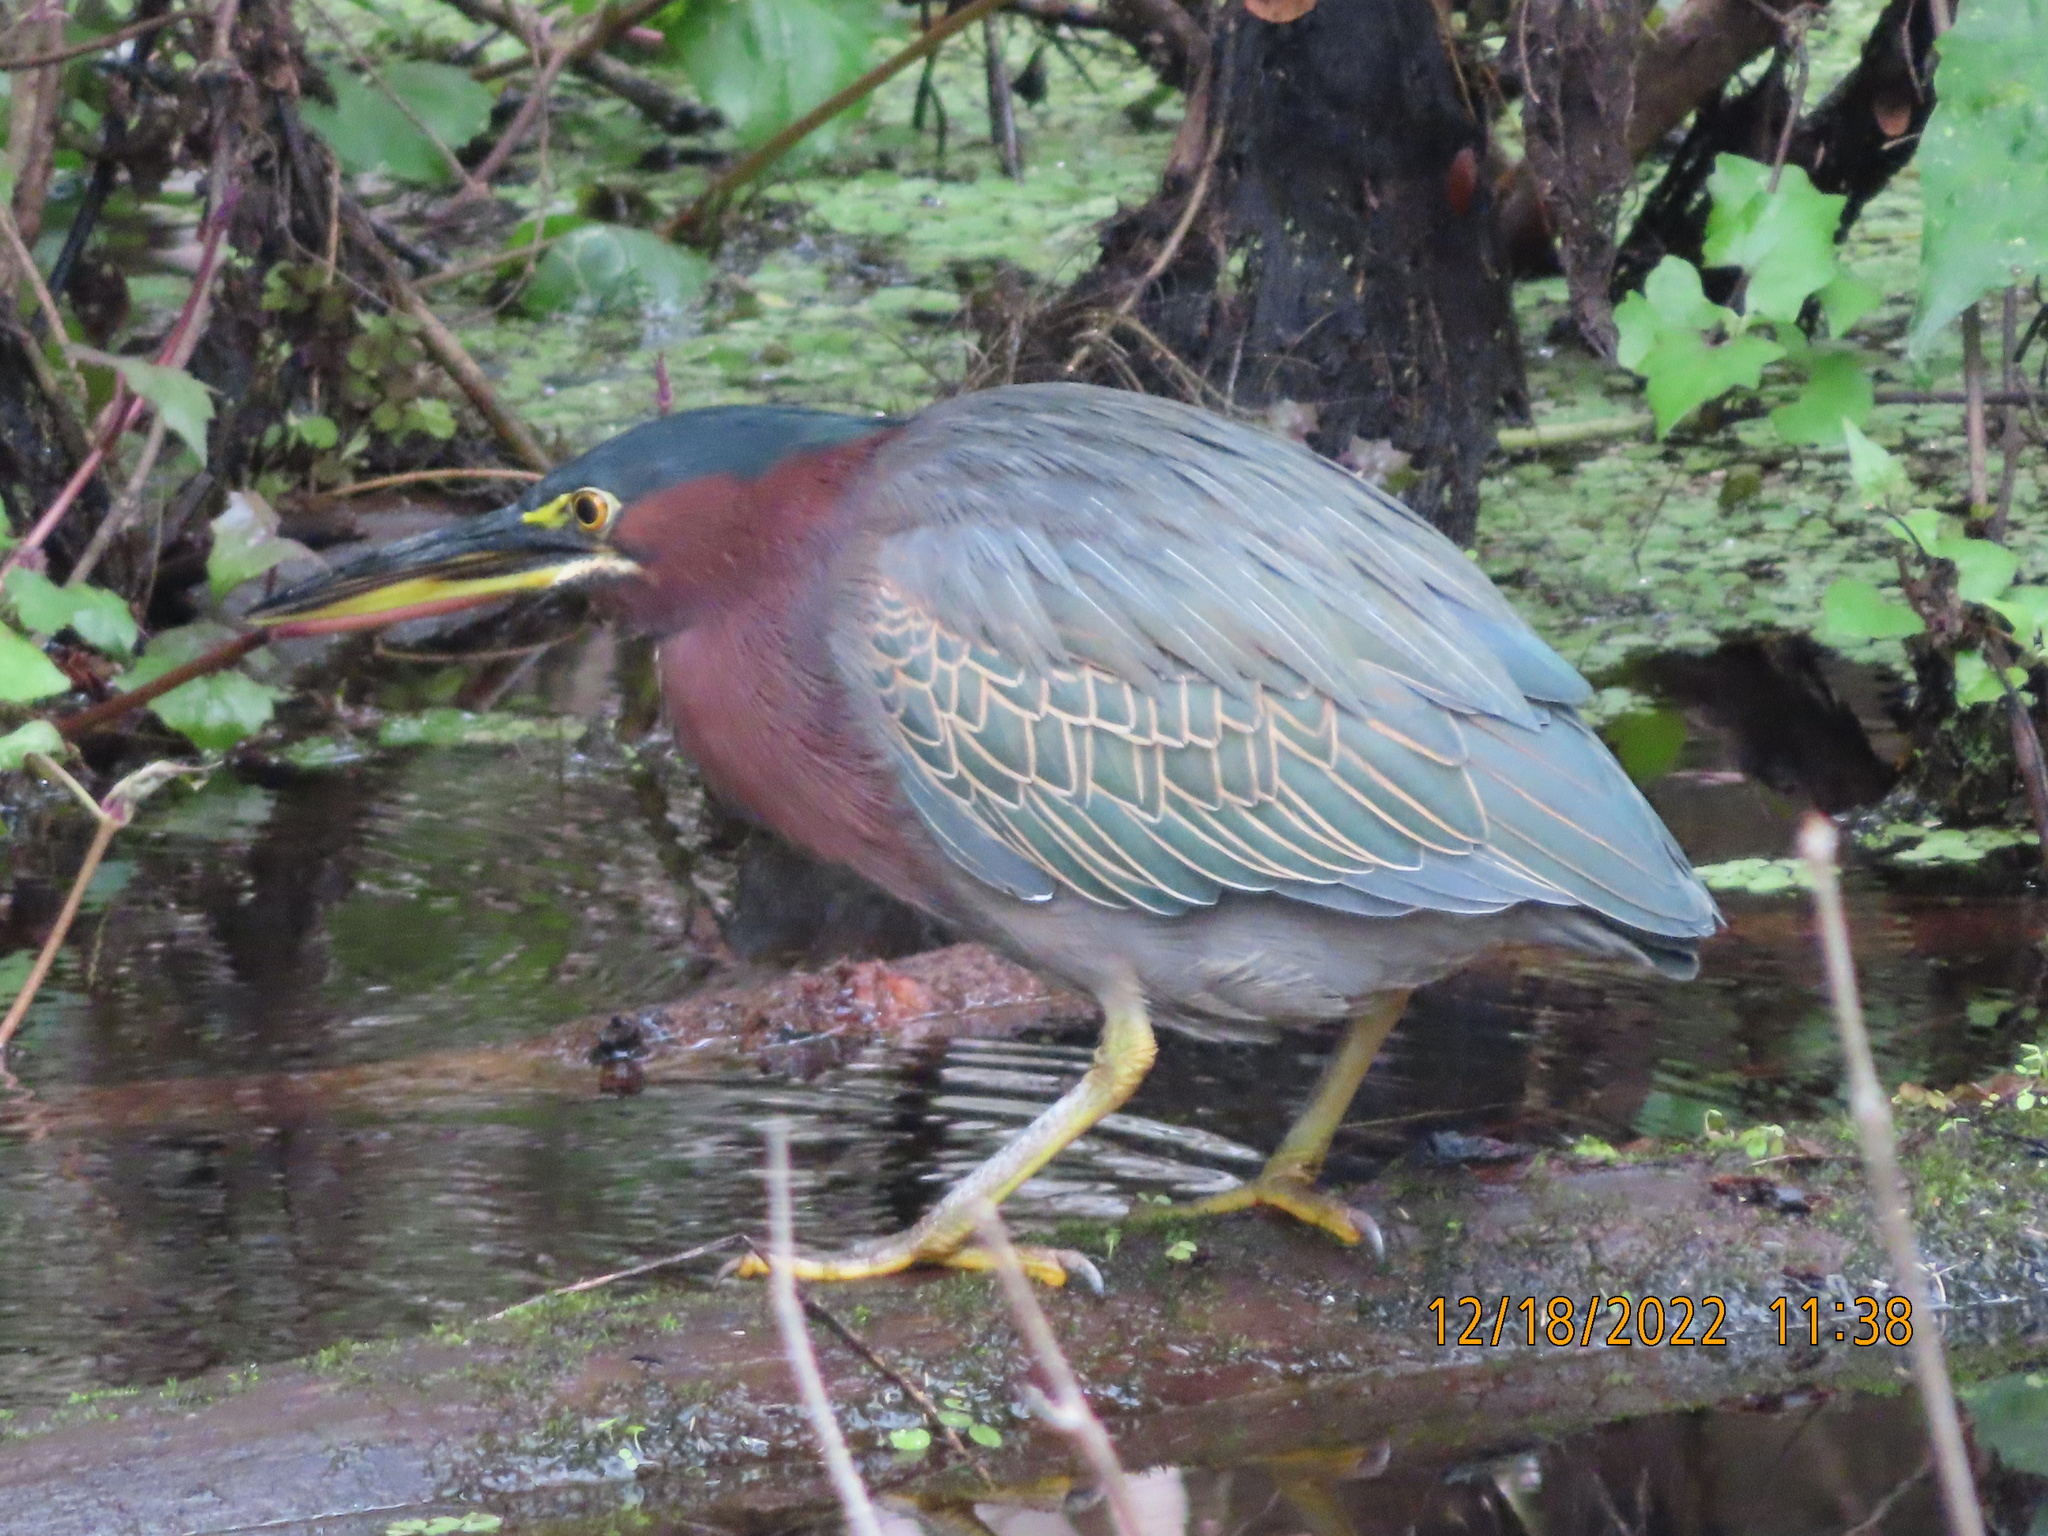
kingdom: Animalia
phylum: Chordata
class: Aves
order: Pelecaniformes
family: Ardeidae
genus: Butorides
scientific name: Butorides virescens
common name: Green heron
